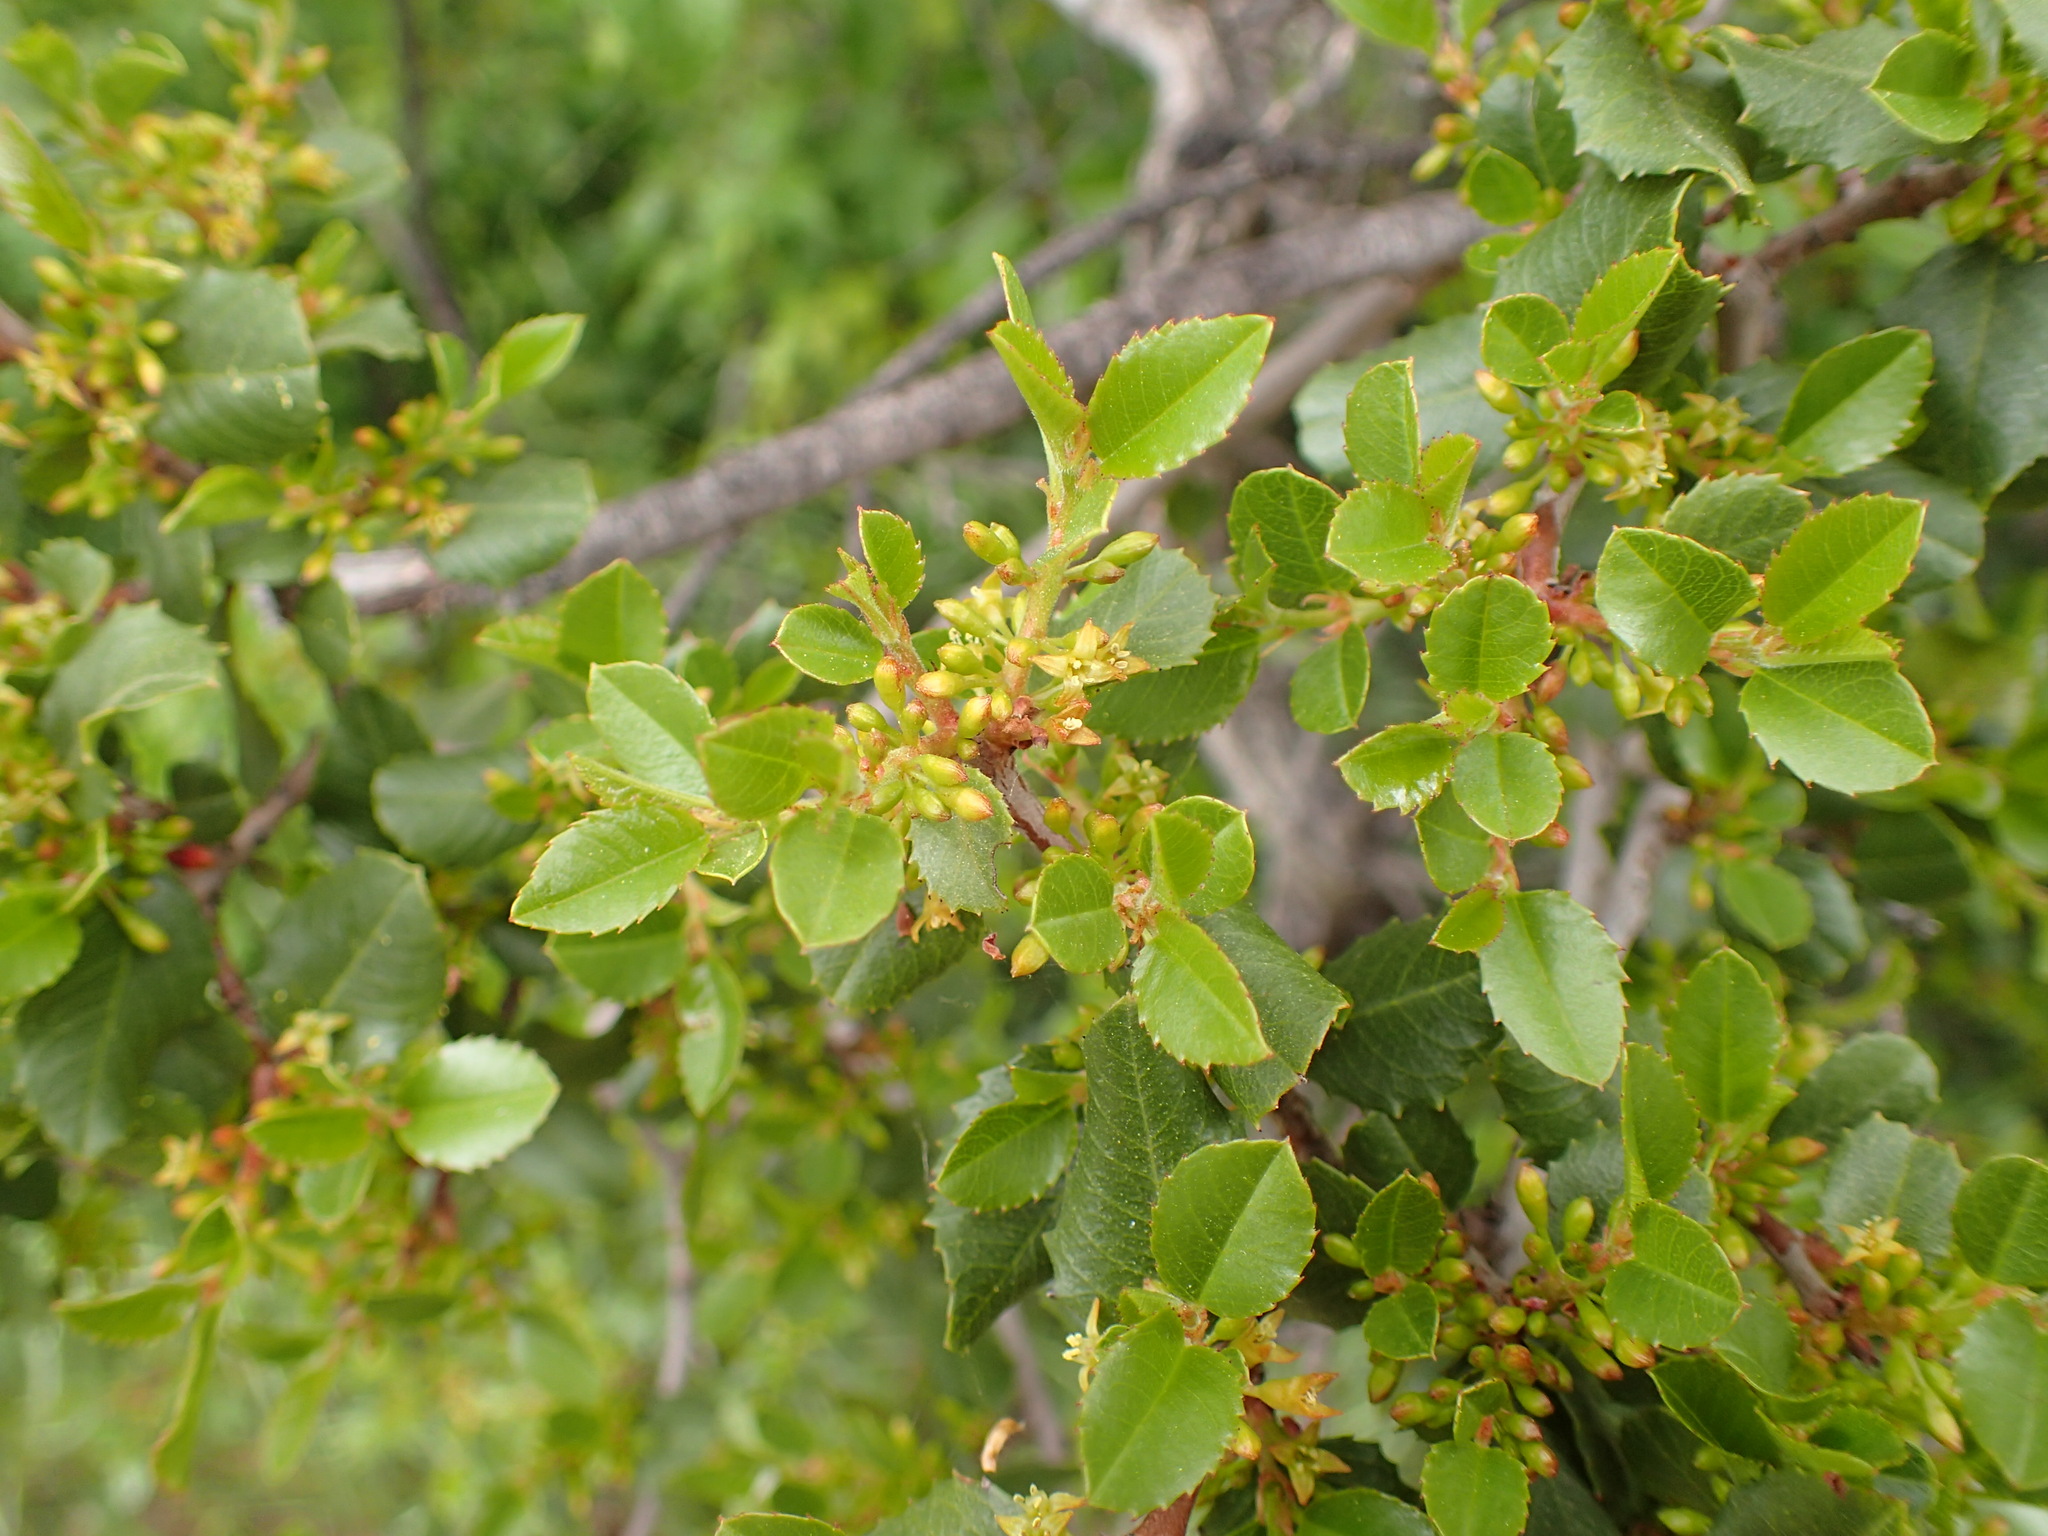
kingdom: Plantae
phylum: Tracheophyta
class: Magnoliopsida
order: Rosales
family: Rhamnaceae
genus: Endotropis
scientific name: Endotropis crocea
